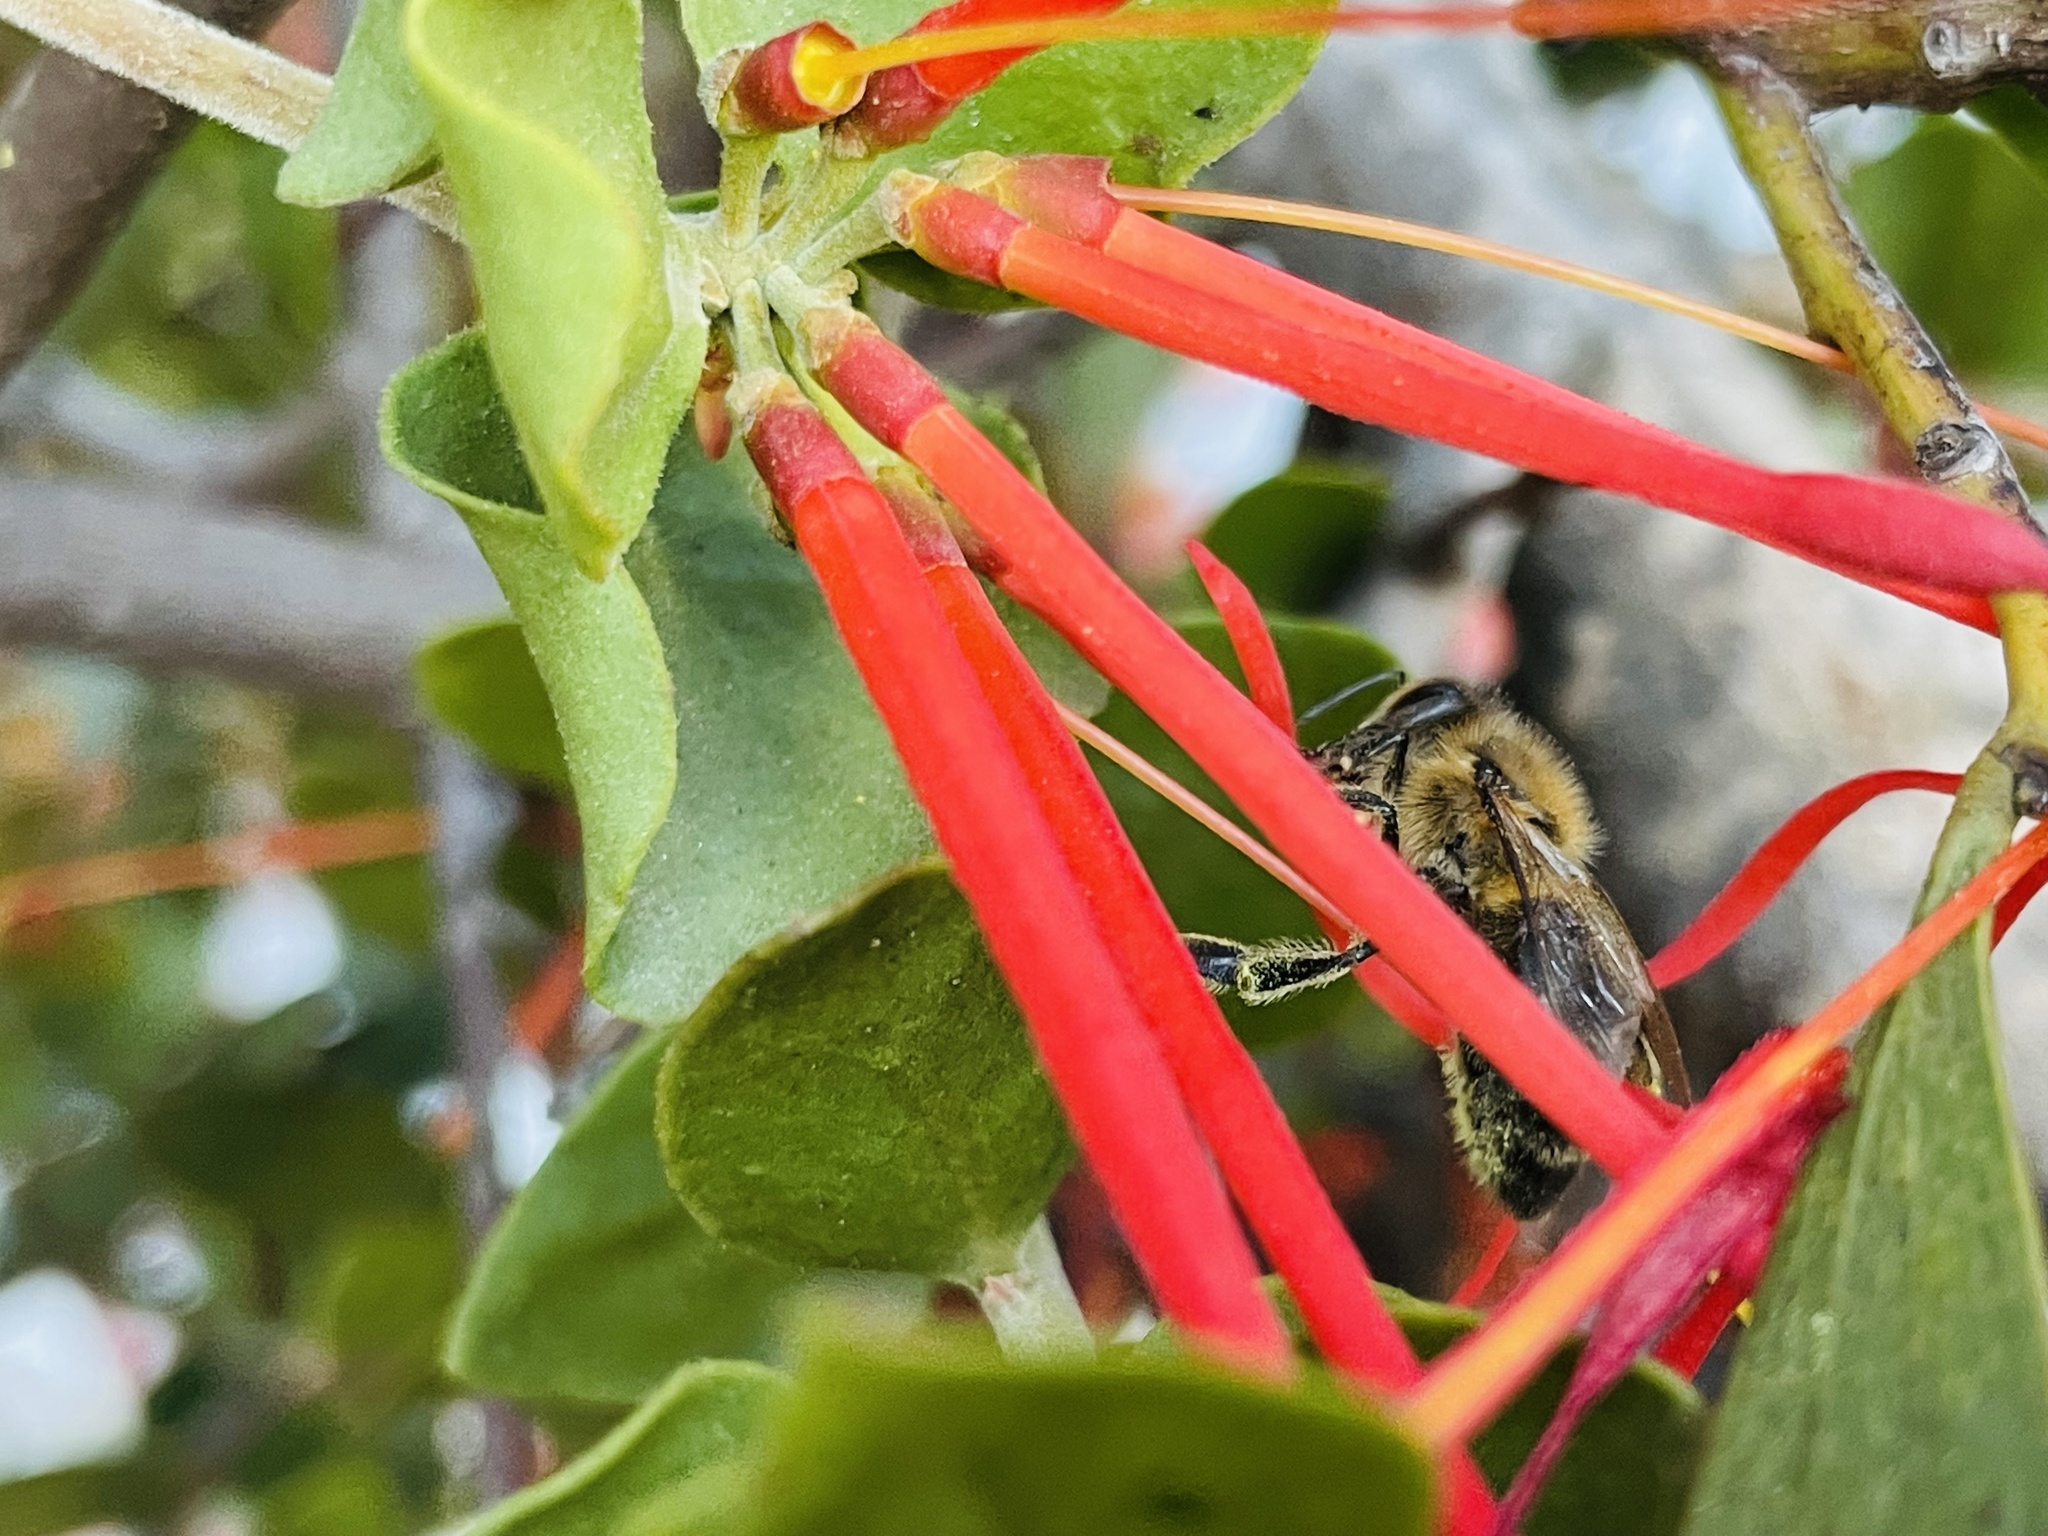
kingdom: Animalia
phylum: Arthropoda
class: Insecta
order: Hymenoptera
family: Apidae
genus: Apis
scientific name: Apis mellifera
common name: Honey bee
